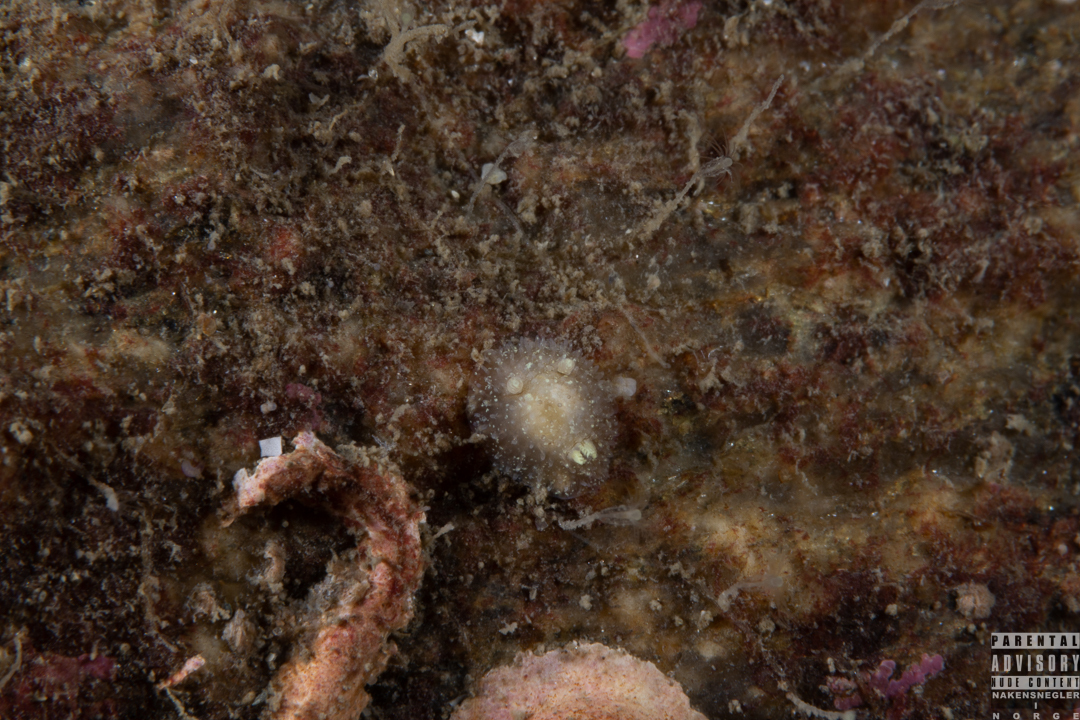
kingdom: Animalia
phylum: Mollusca
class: Gastropoda
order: Nudibranchia
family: Onchidorididae
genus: Acanthodoris
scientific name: Acanthodoris pilosa
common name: Hairy spiny doris
